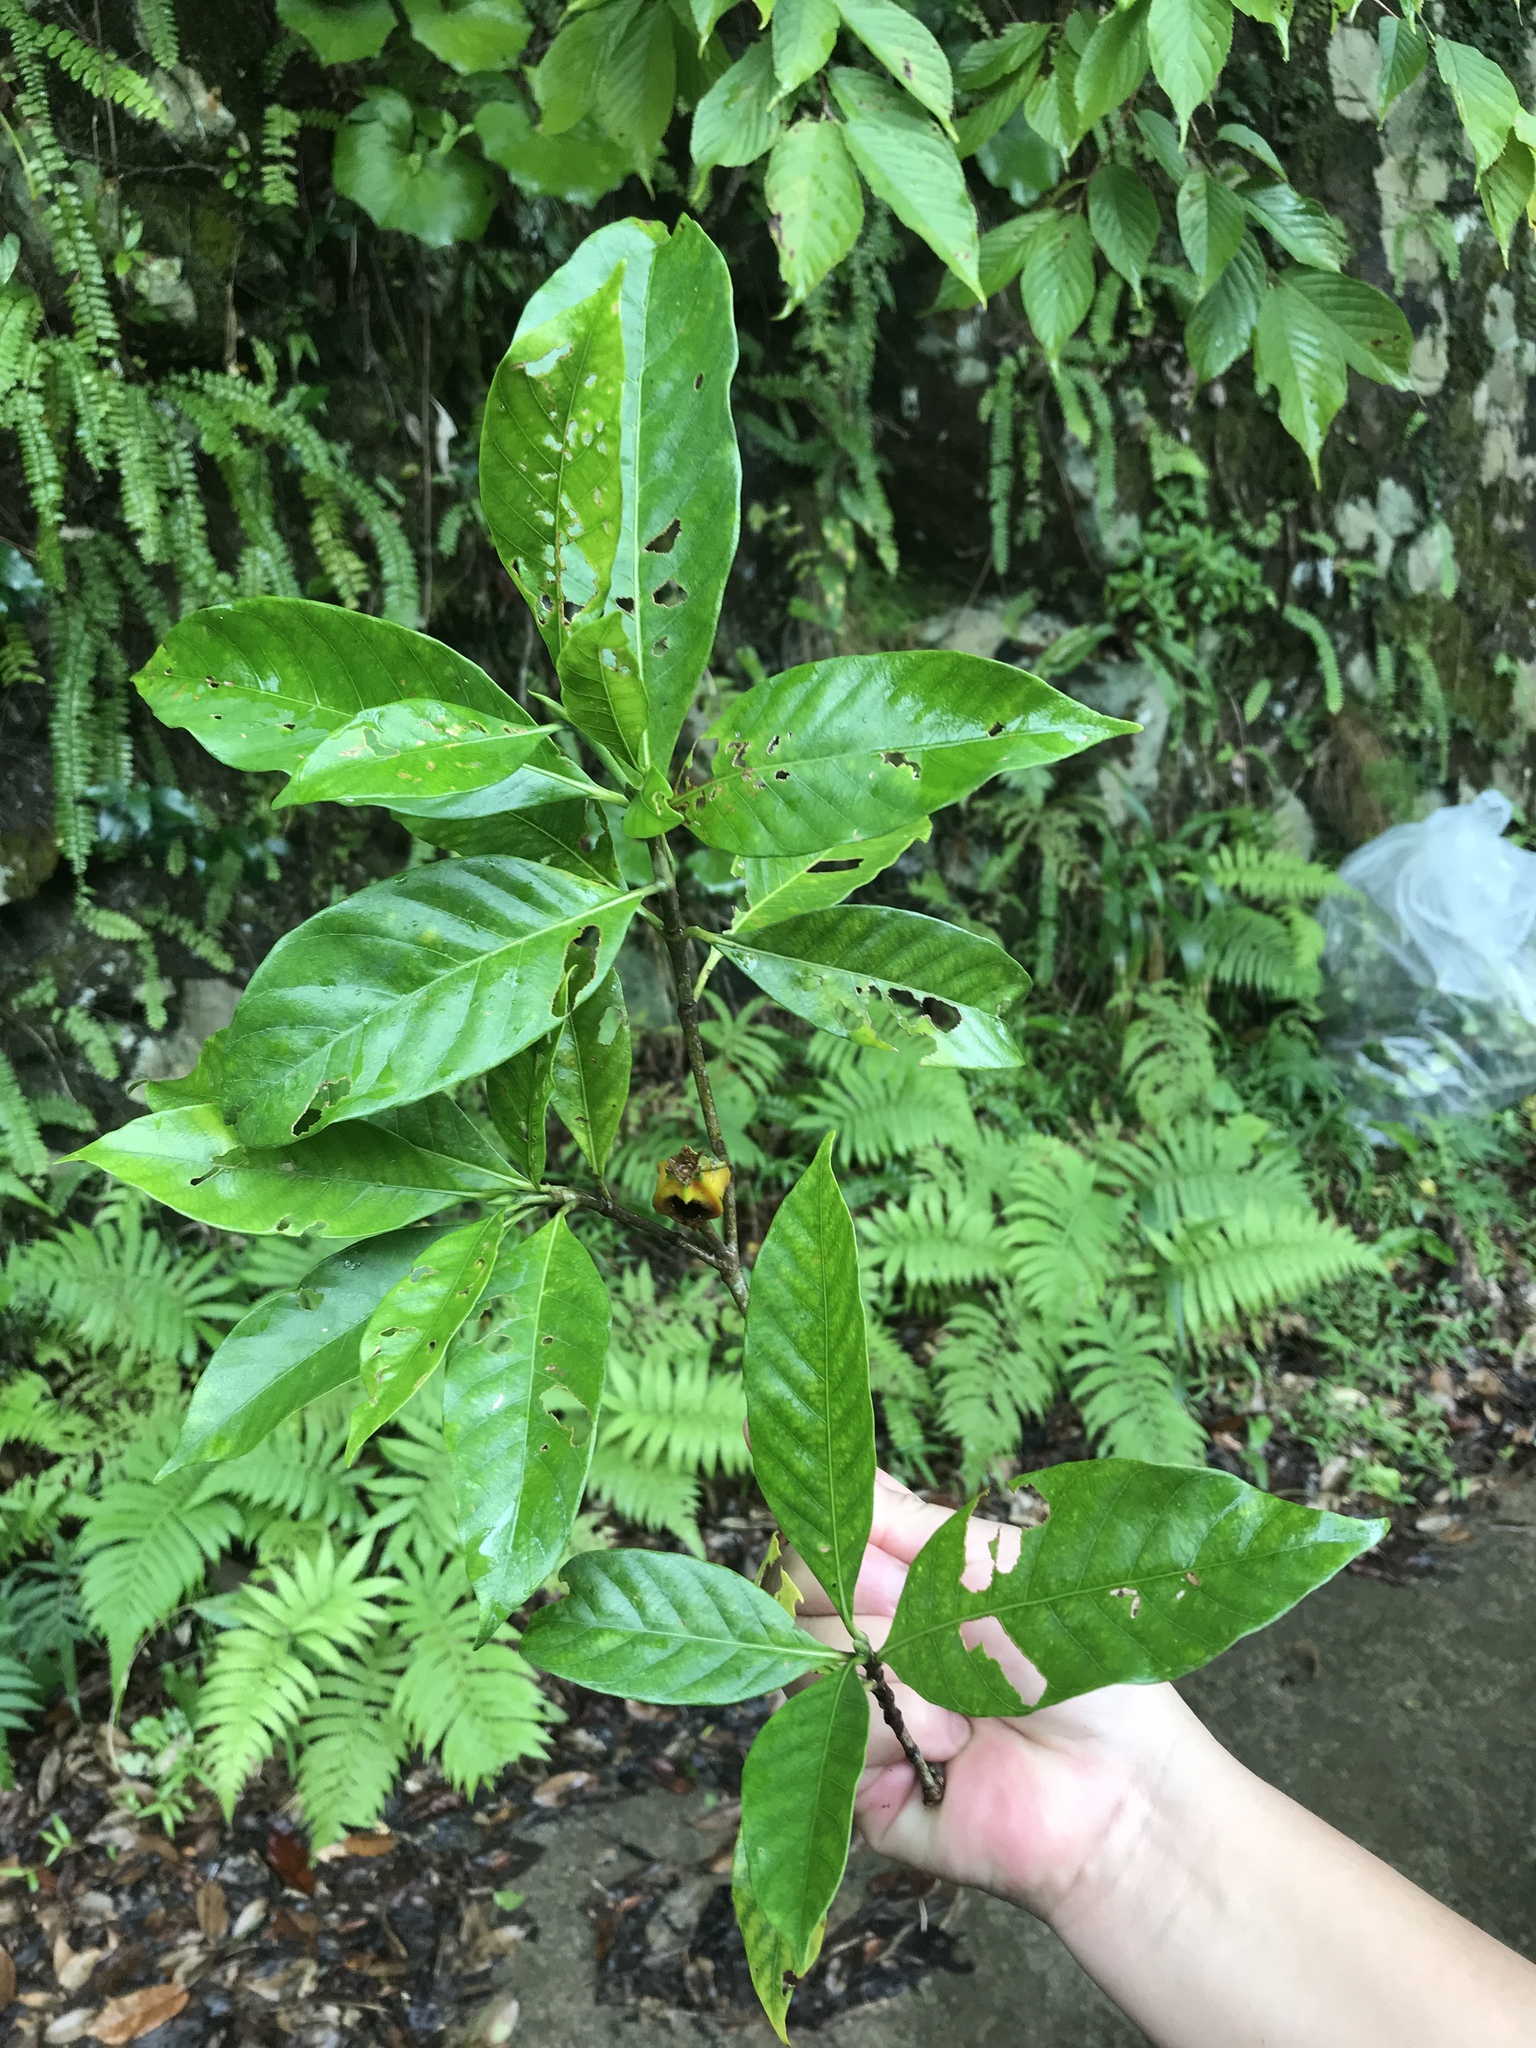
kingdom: Plantae
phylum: Tracheophyta
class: Magnoliopsida
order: Gentianales
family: Rubiaceae
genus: Gardenia
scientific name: Gardenia jasminoides
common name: Cape-jasmine
